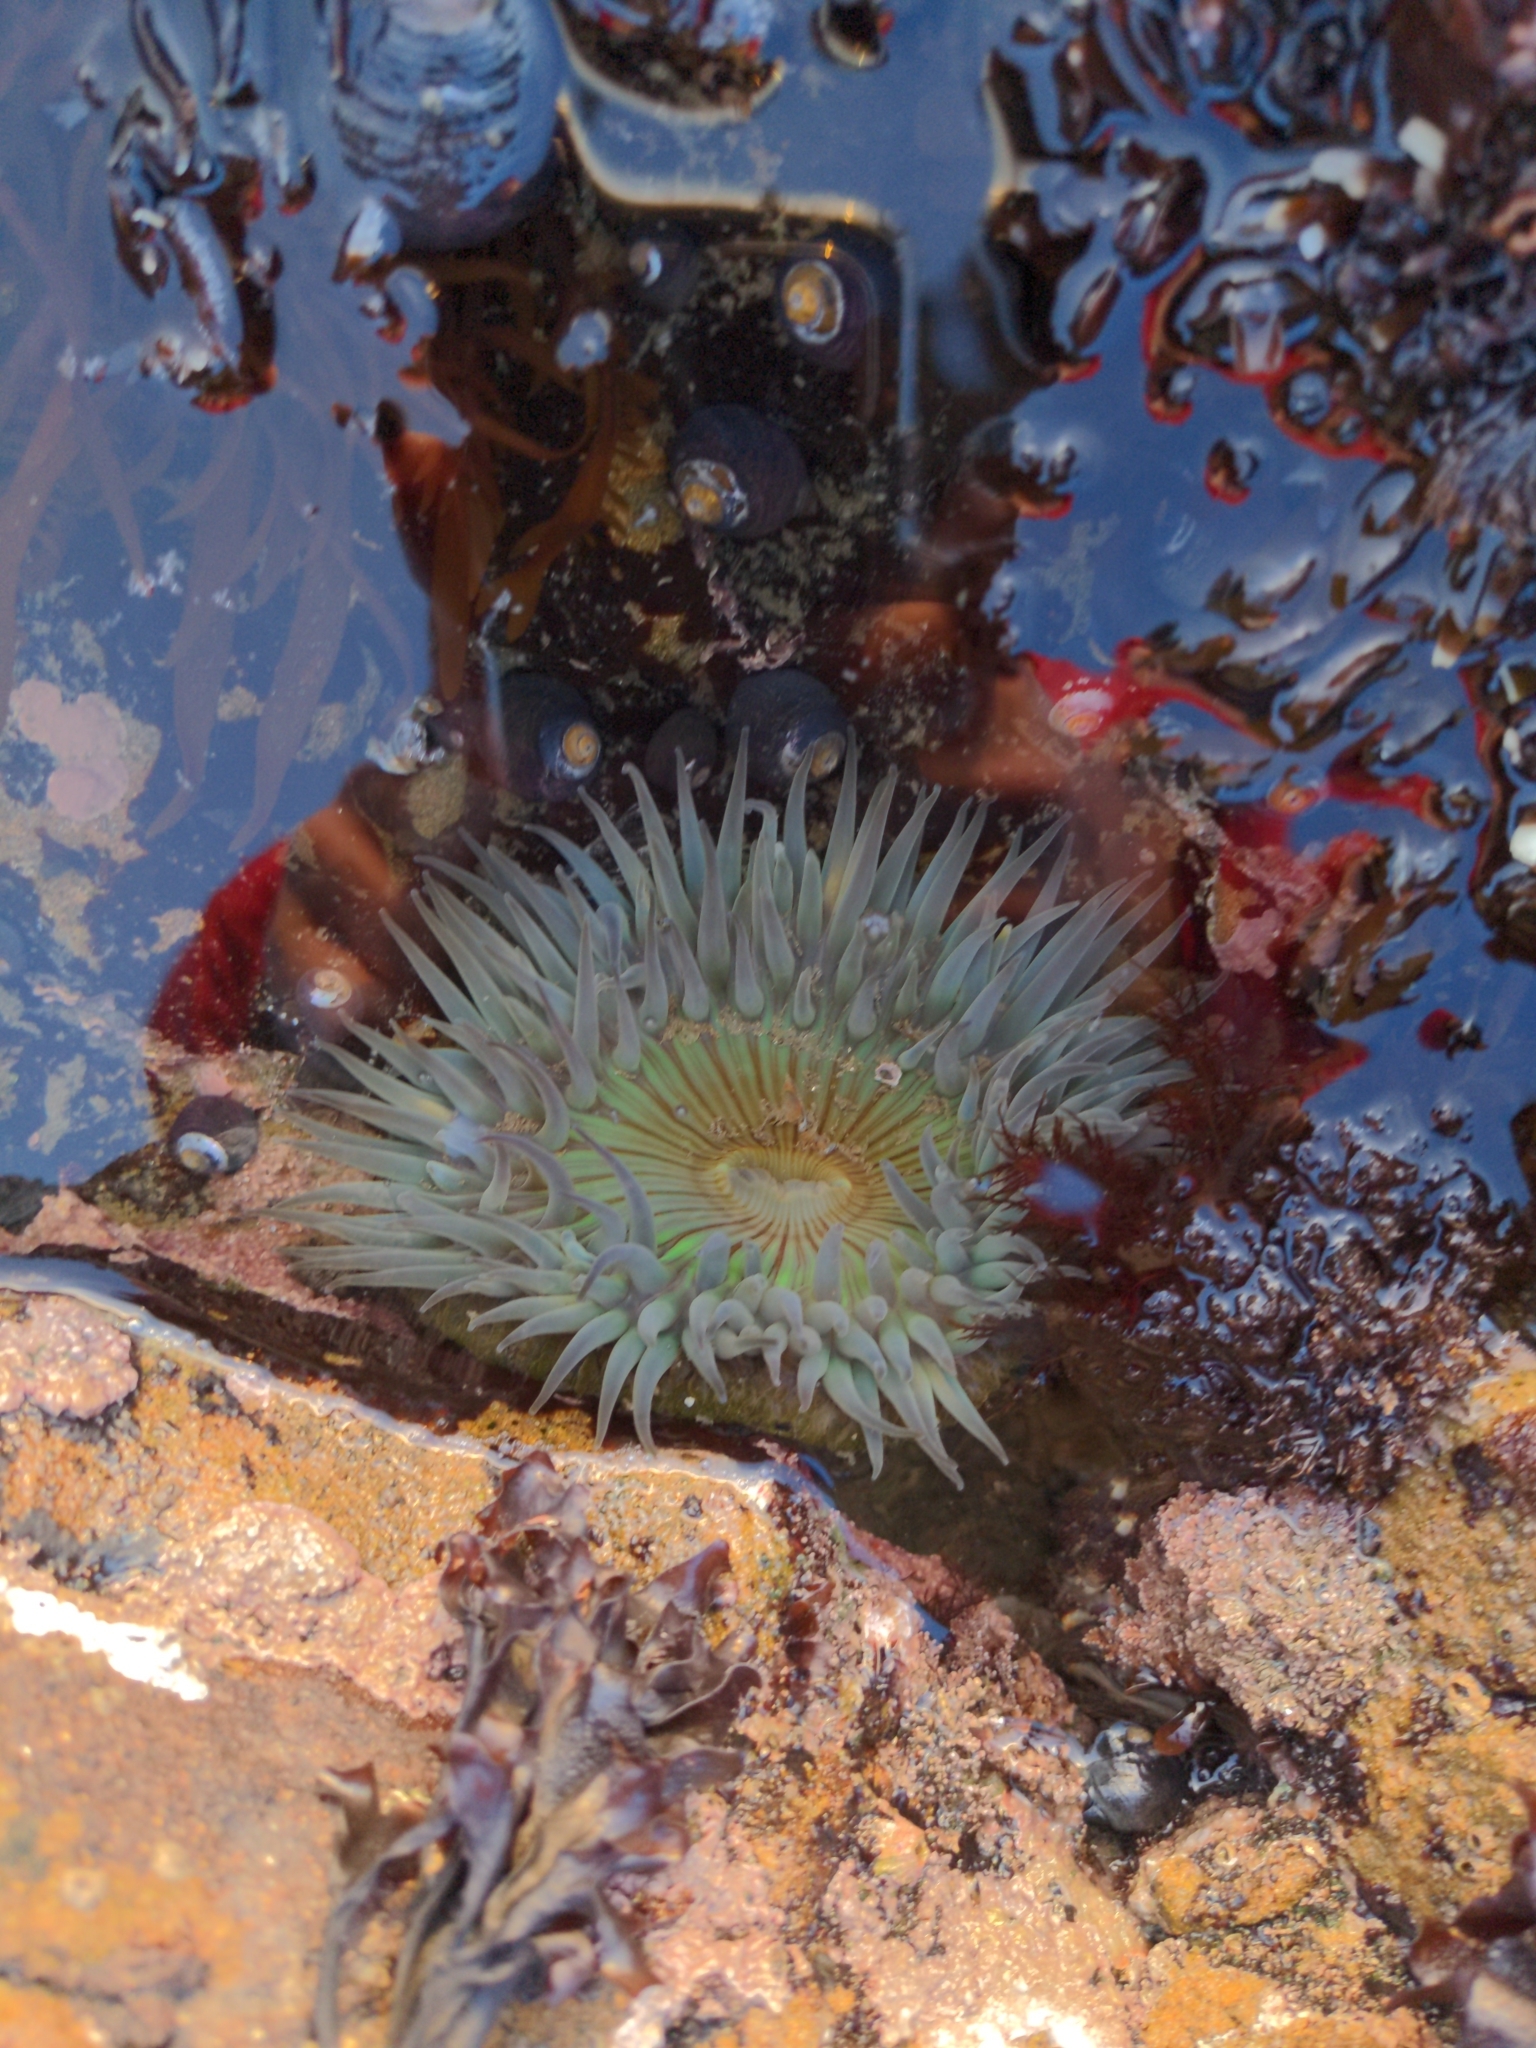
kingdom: Animalia
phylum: Cnidaria
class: Anthozoa
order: Actiniaria
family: Actiniidae
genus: Anthopleura
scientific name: Anthopleura sola
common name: Sun anemone
